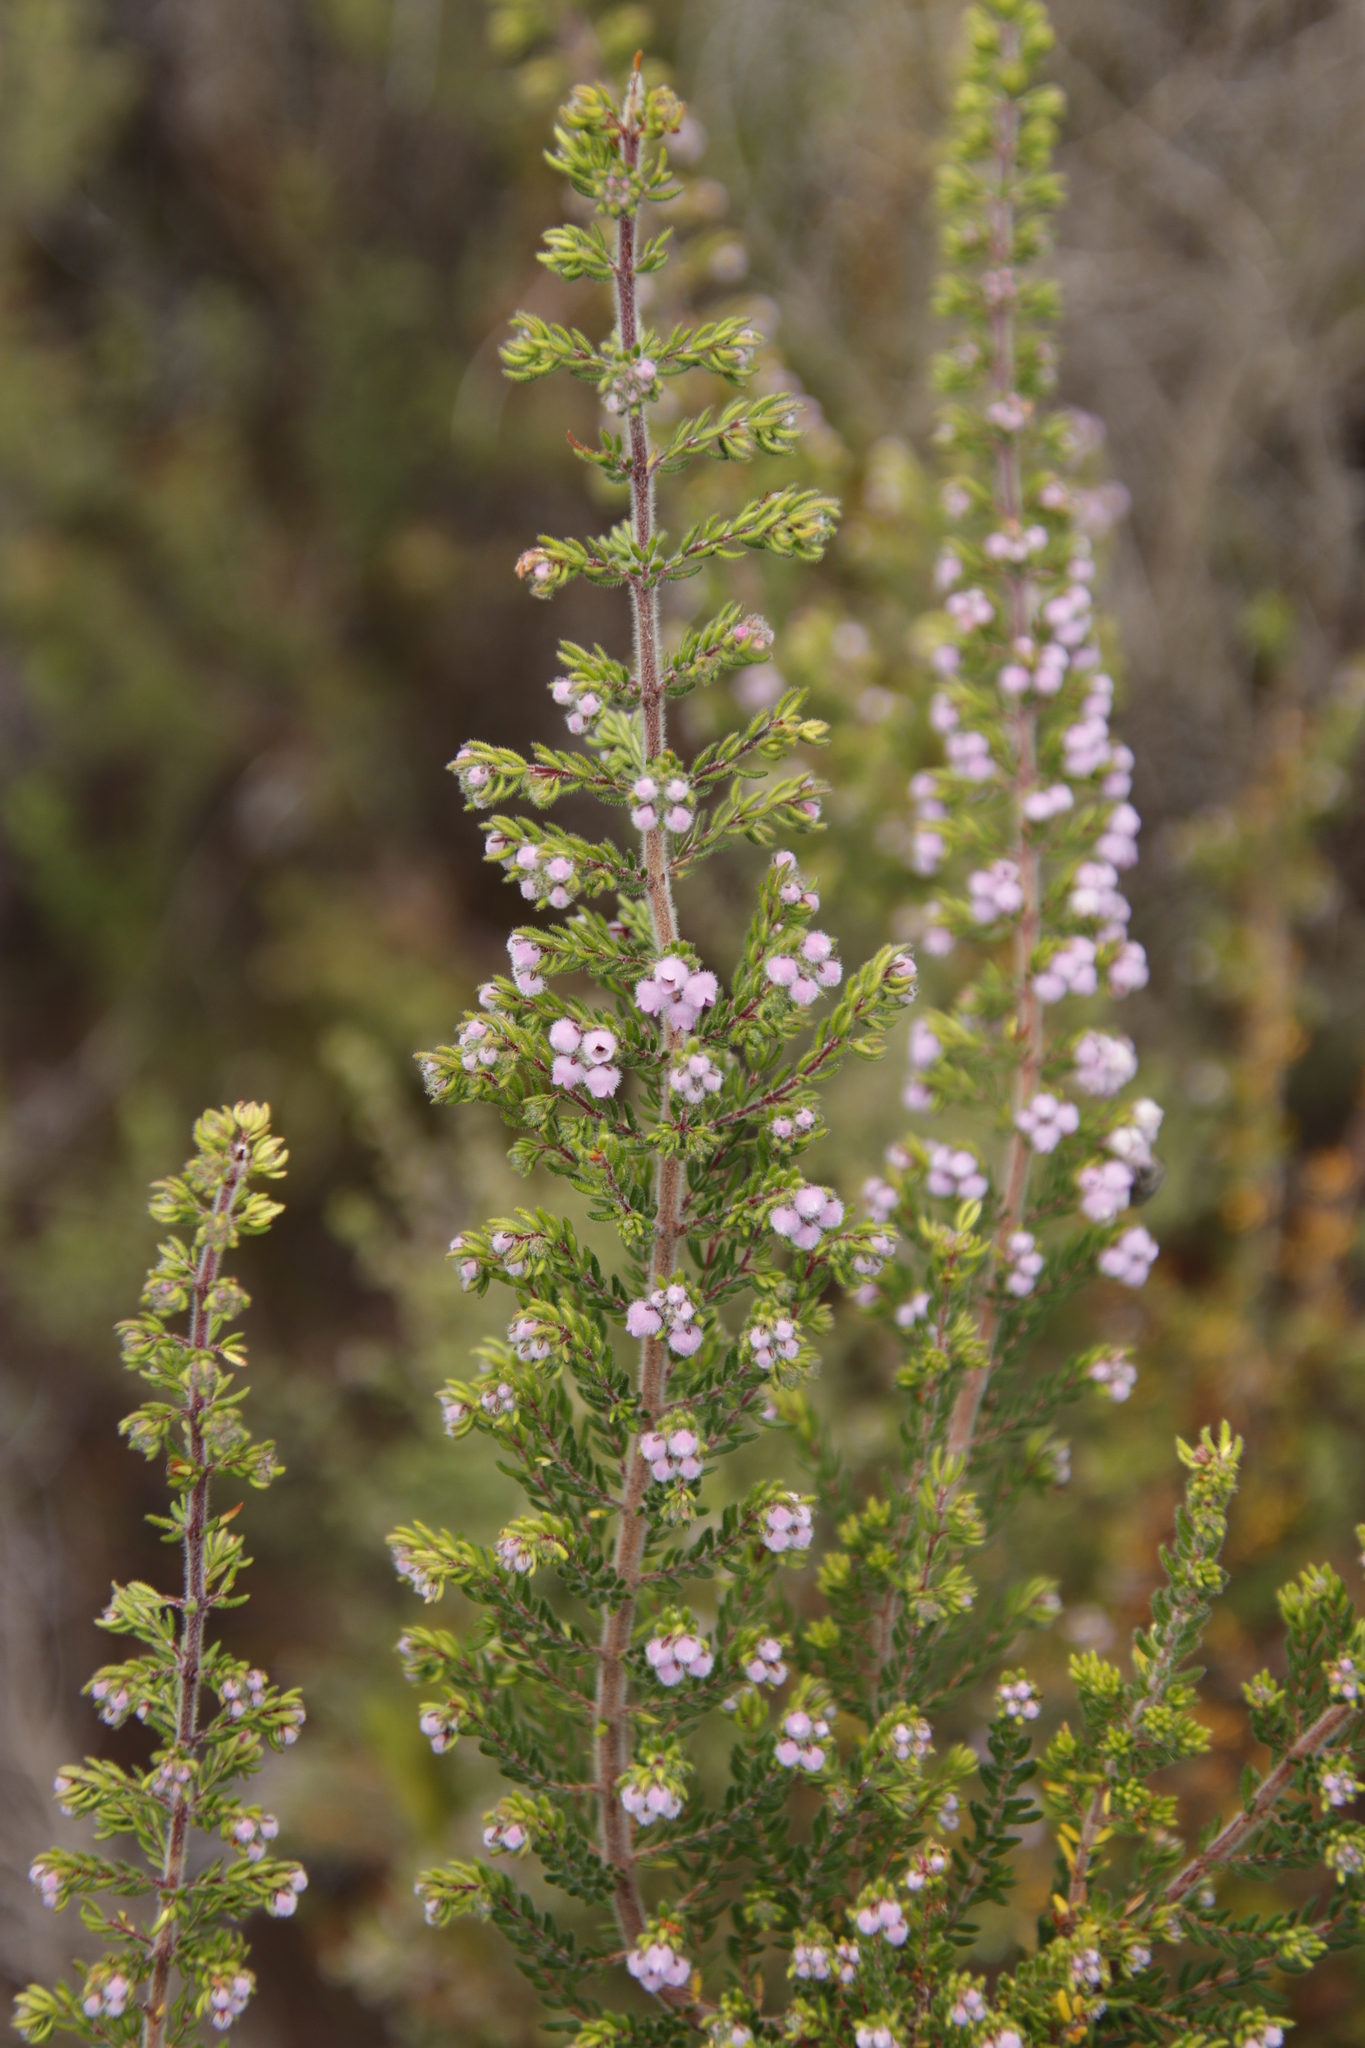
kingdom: Plantae
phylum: Tracheophyta
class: Magnoliopsida
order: Ericales
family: Ericaceae
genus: Erica
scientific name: Erica hirtiflora
